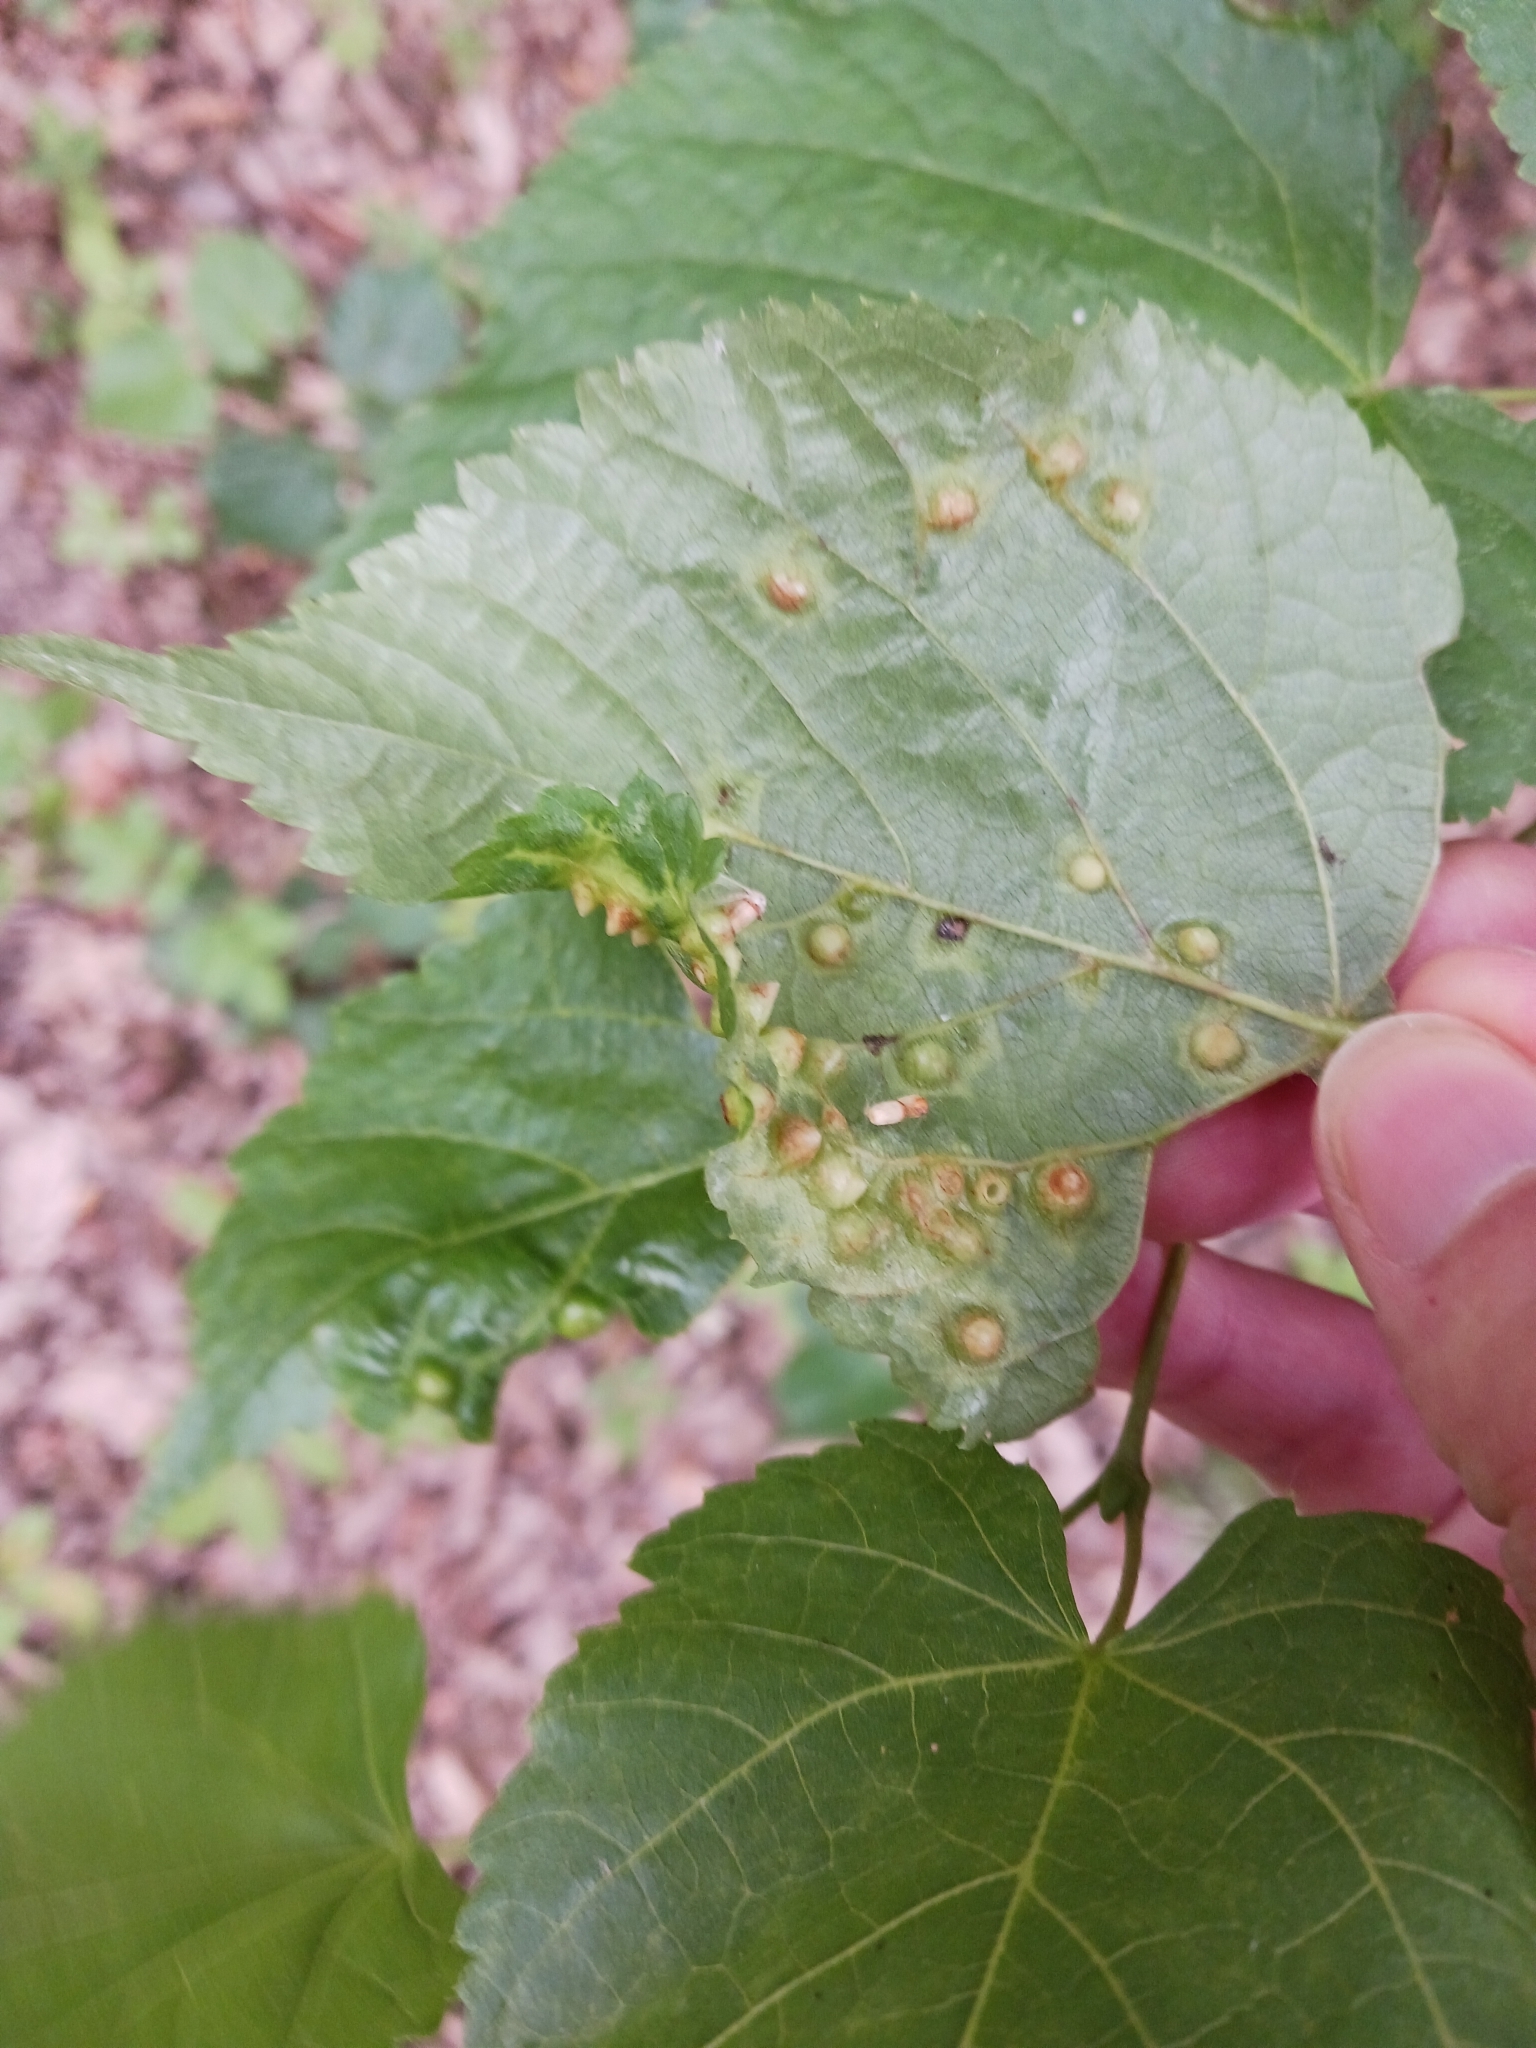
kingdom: Animalia
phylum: Arthropoda
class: Insecta
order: Diptera
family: Cecidomyiidae
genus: Didymomyia
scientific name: Didymomyia tiliacea
